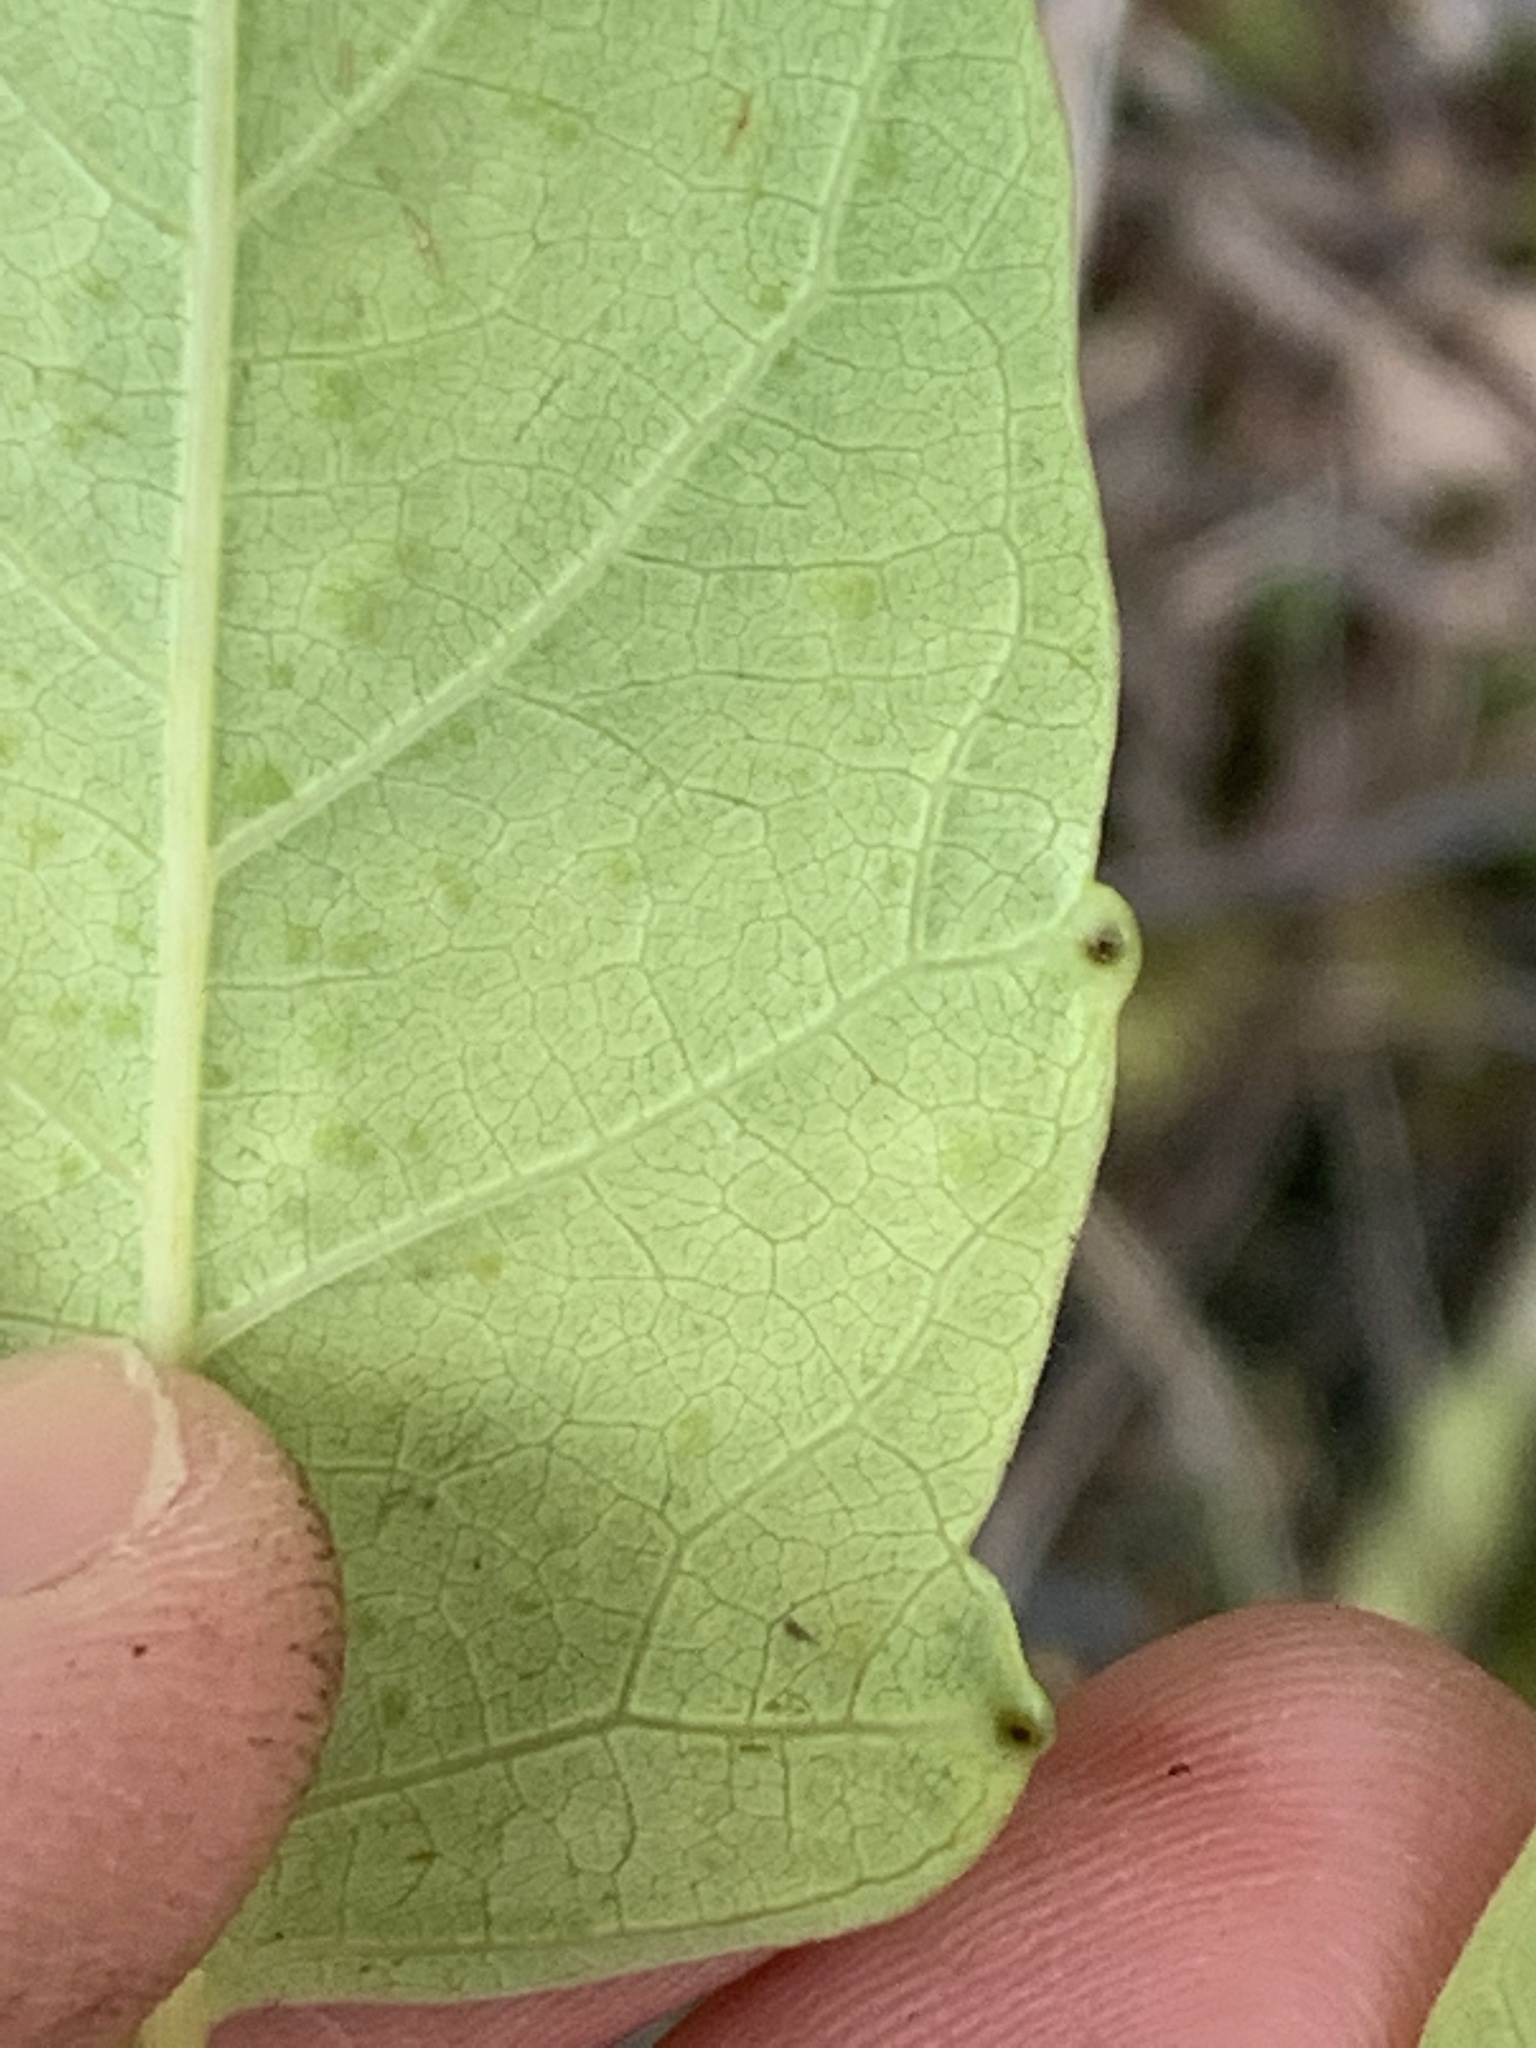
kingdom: Plantae
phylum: Tracheophyta
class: Magnoliopsida
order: Sapindales
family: Simaroubaceae
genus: Ailanthus
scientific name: Ailanthus altissima
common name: Tree-of-heaven
